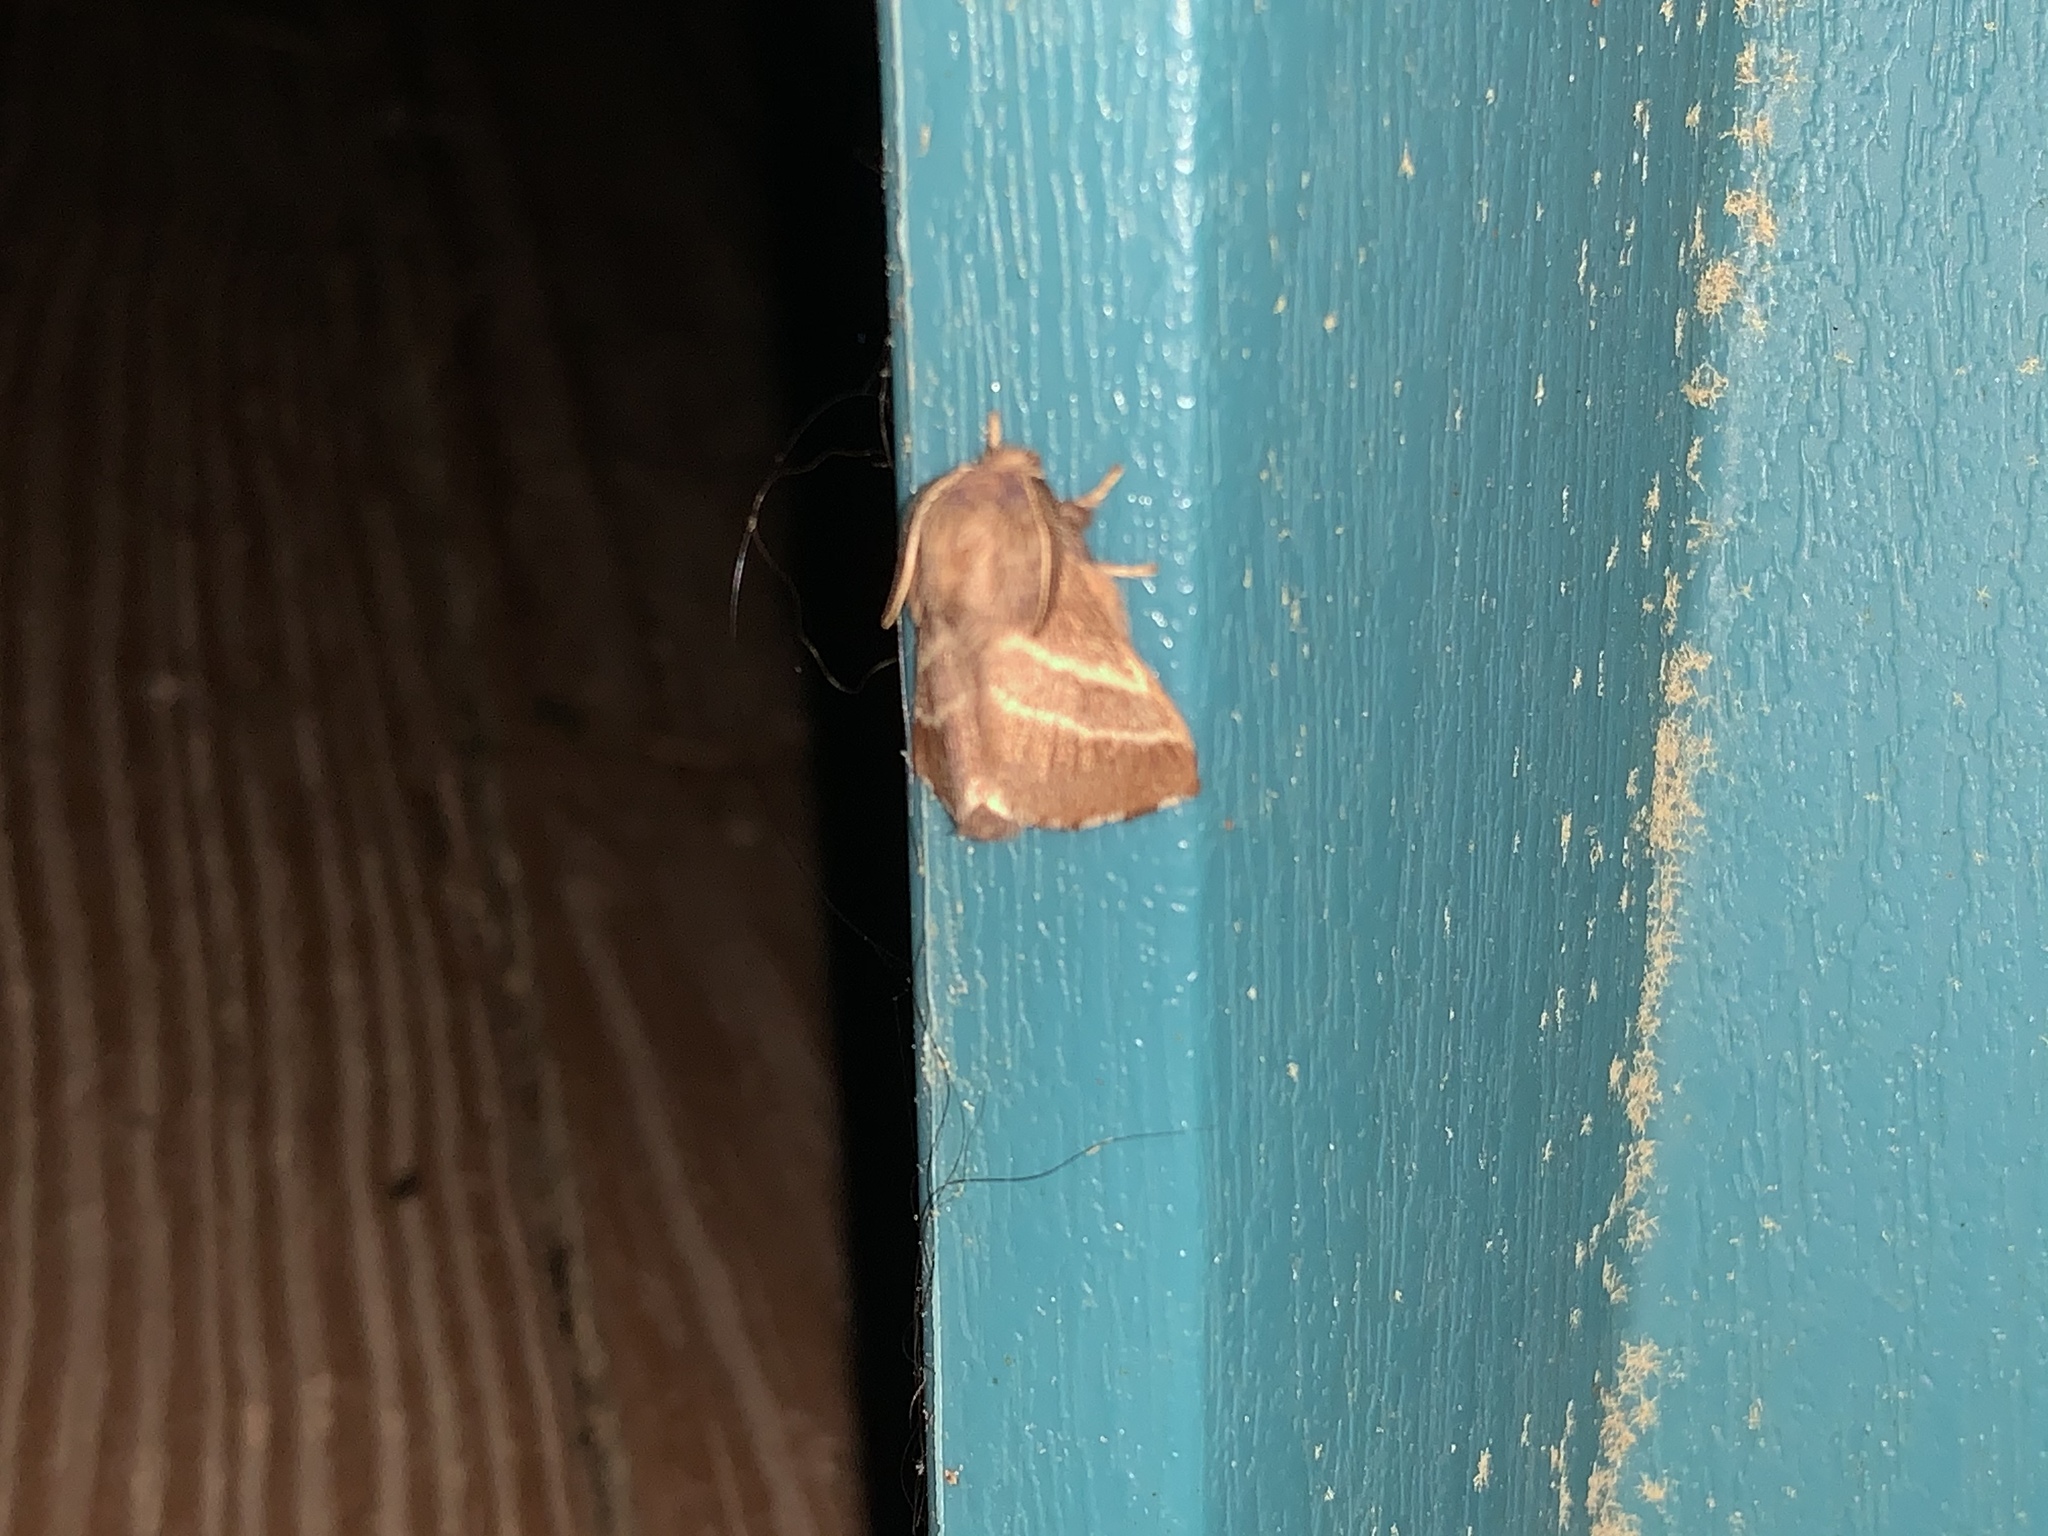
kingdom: Animalia
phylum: Arthropoda
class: Insecta
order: Lepidoptera
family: Lasiocampidae
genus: Malacosoma
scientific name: Malacosoma americana
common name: Eastern tent caterpillar moth
